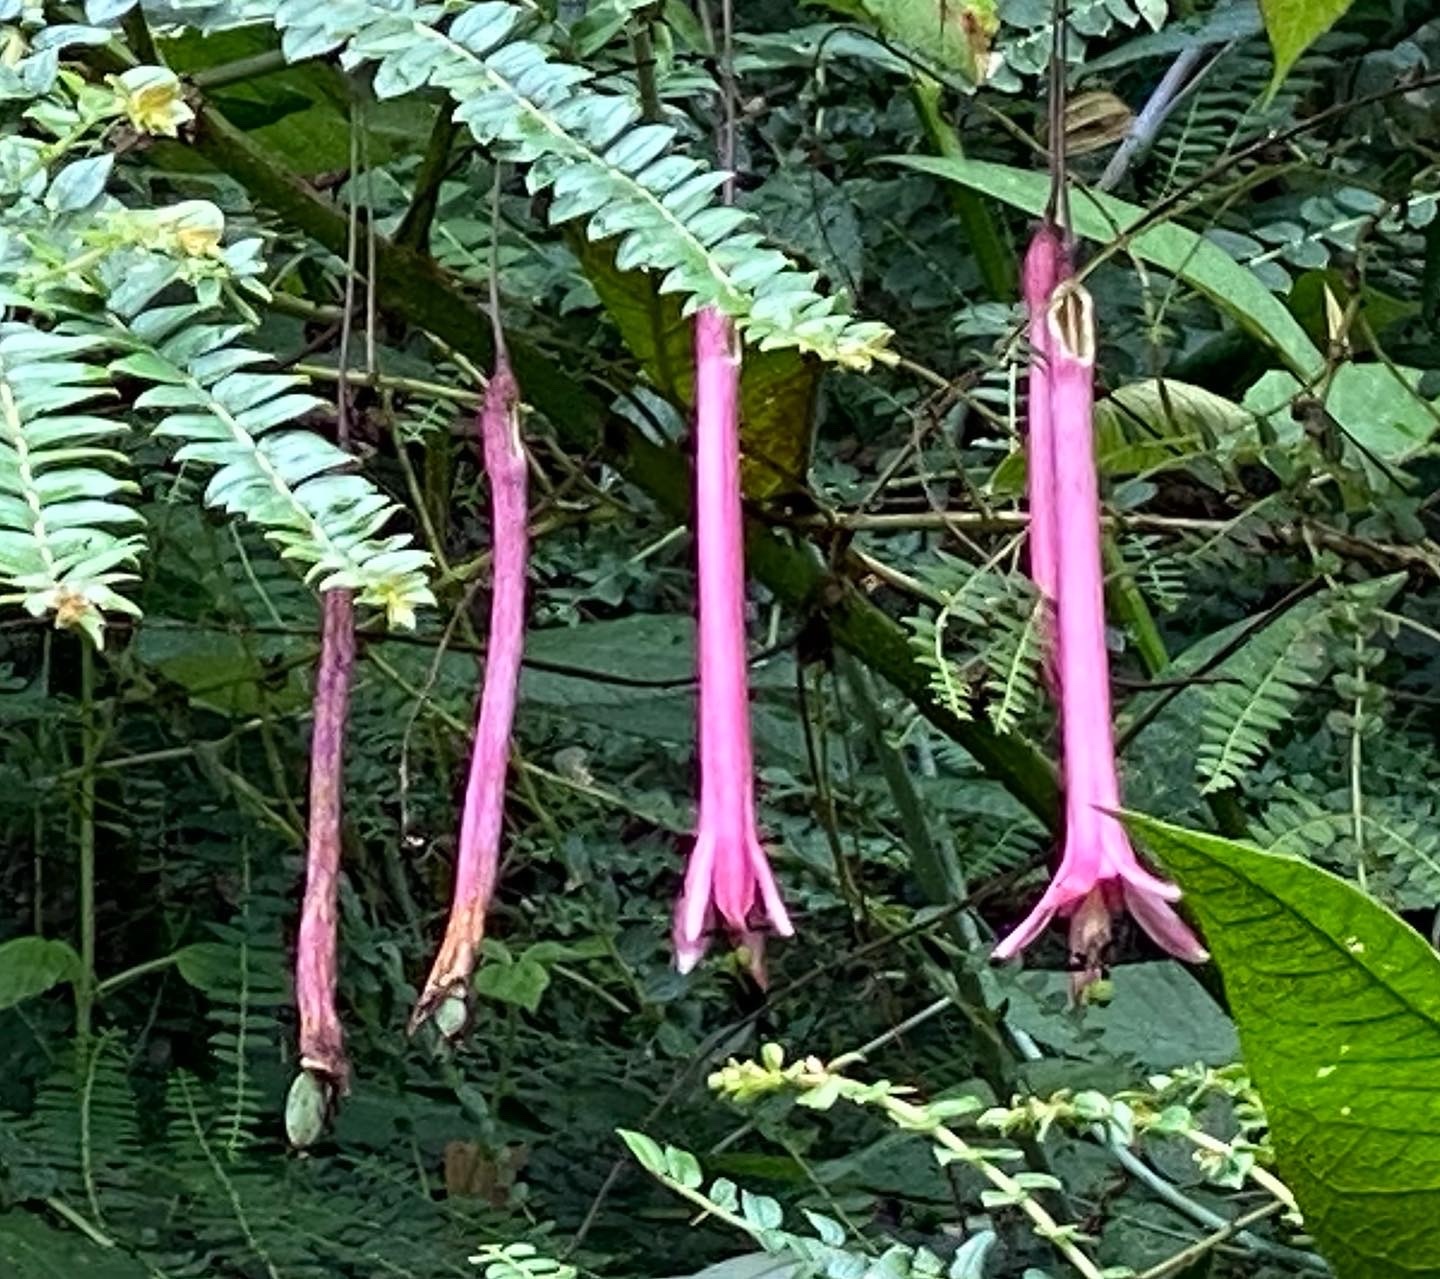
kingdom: Plantae
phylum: Tracheophyta
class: Magnoliopsida
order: Malpighiales
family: Passifloraceae
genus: Passiflora
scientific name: Passiflora trinervia
